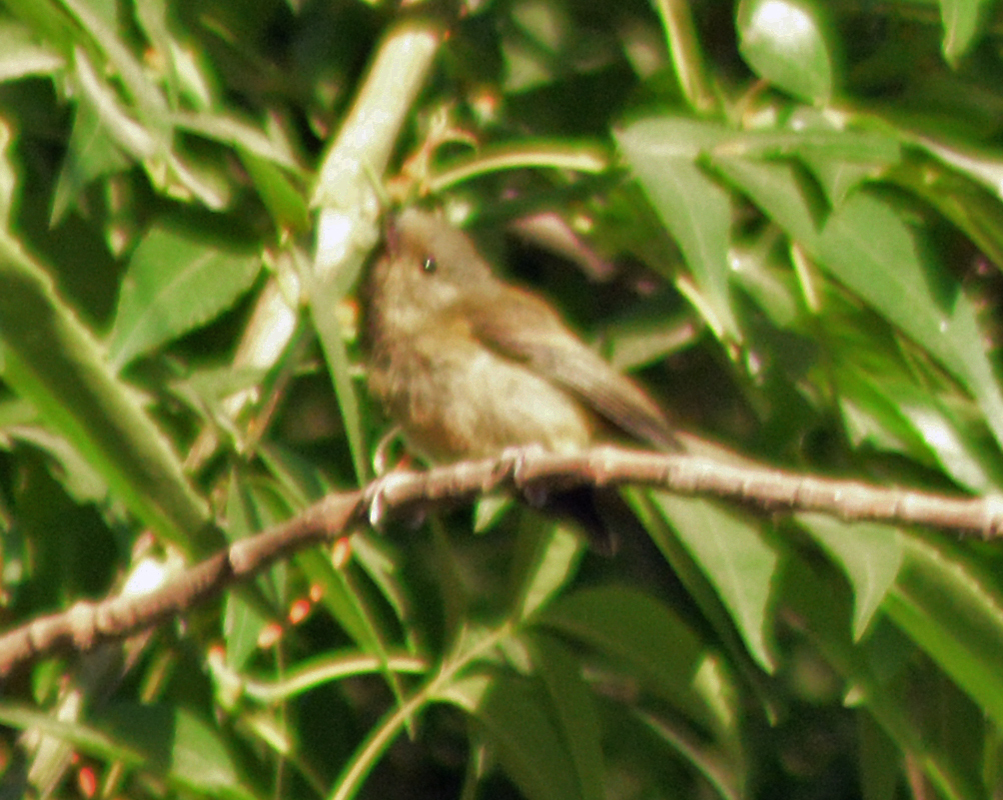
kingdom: Animalia
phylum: Chordata
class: Aves
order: Passeriformes
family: Thraupidae
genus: Diglossa
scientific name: Diglossa baritula
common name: Cinnamon-bellied flowerpiercer
